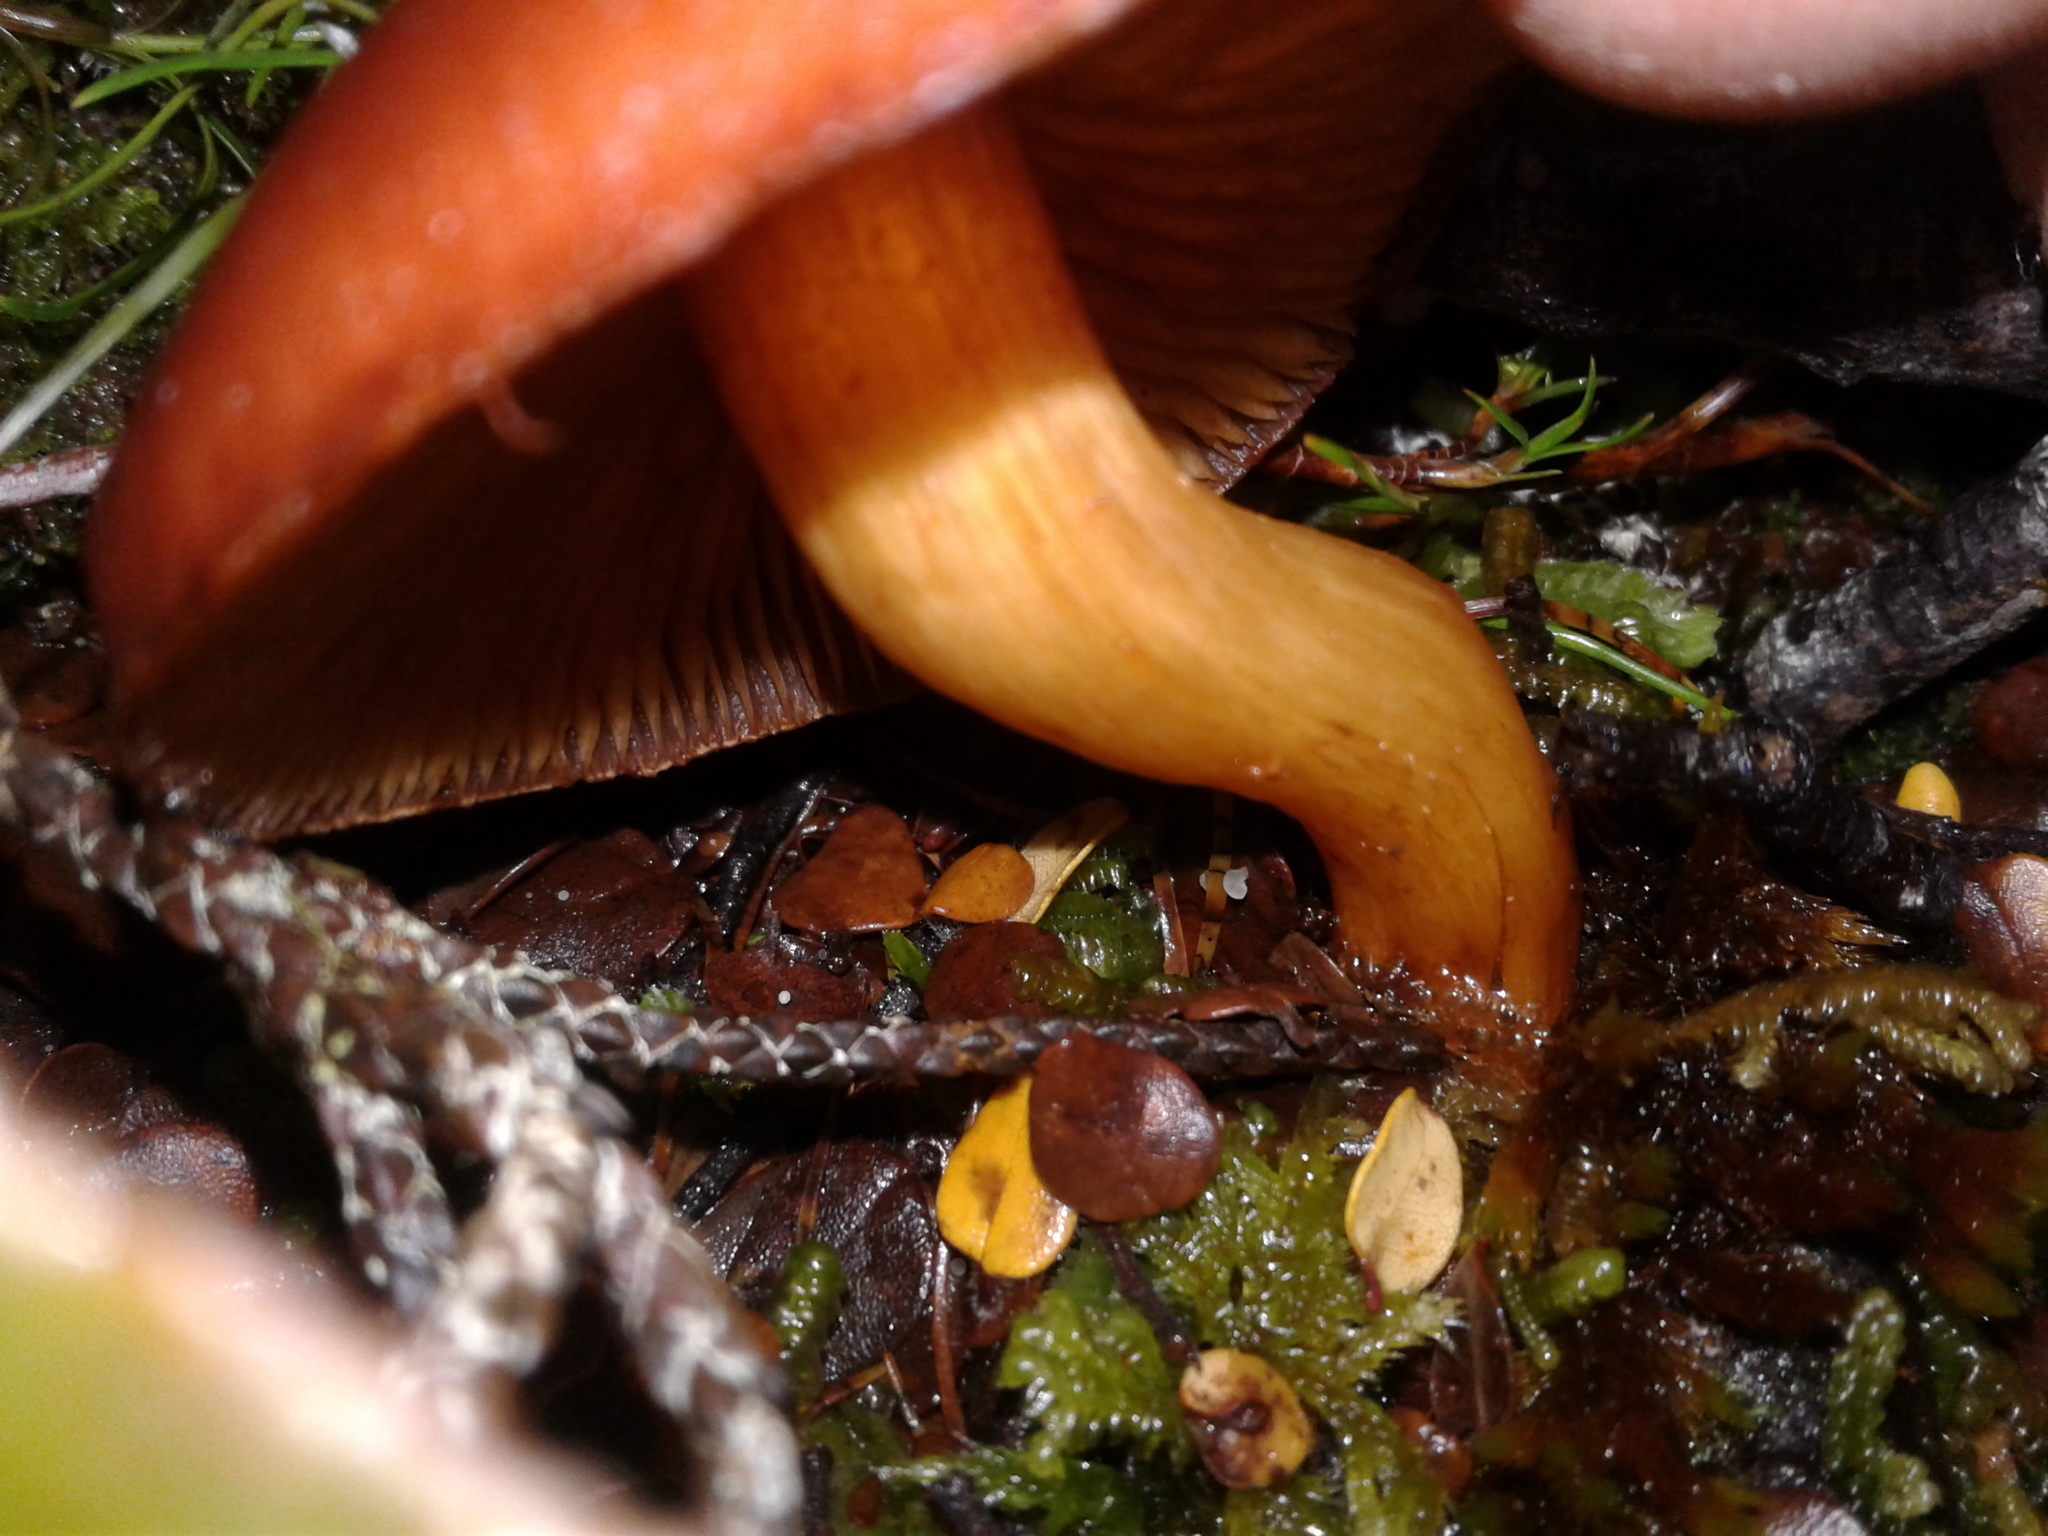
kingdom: Fungi
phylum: Basidiomycota
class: Agaricomycetes
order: Agaricales
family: Cortinariaceae
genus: Cortinarius
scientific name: Cortinarius
